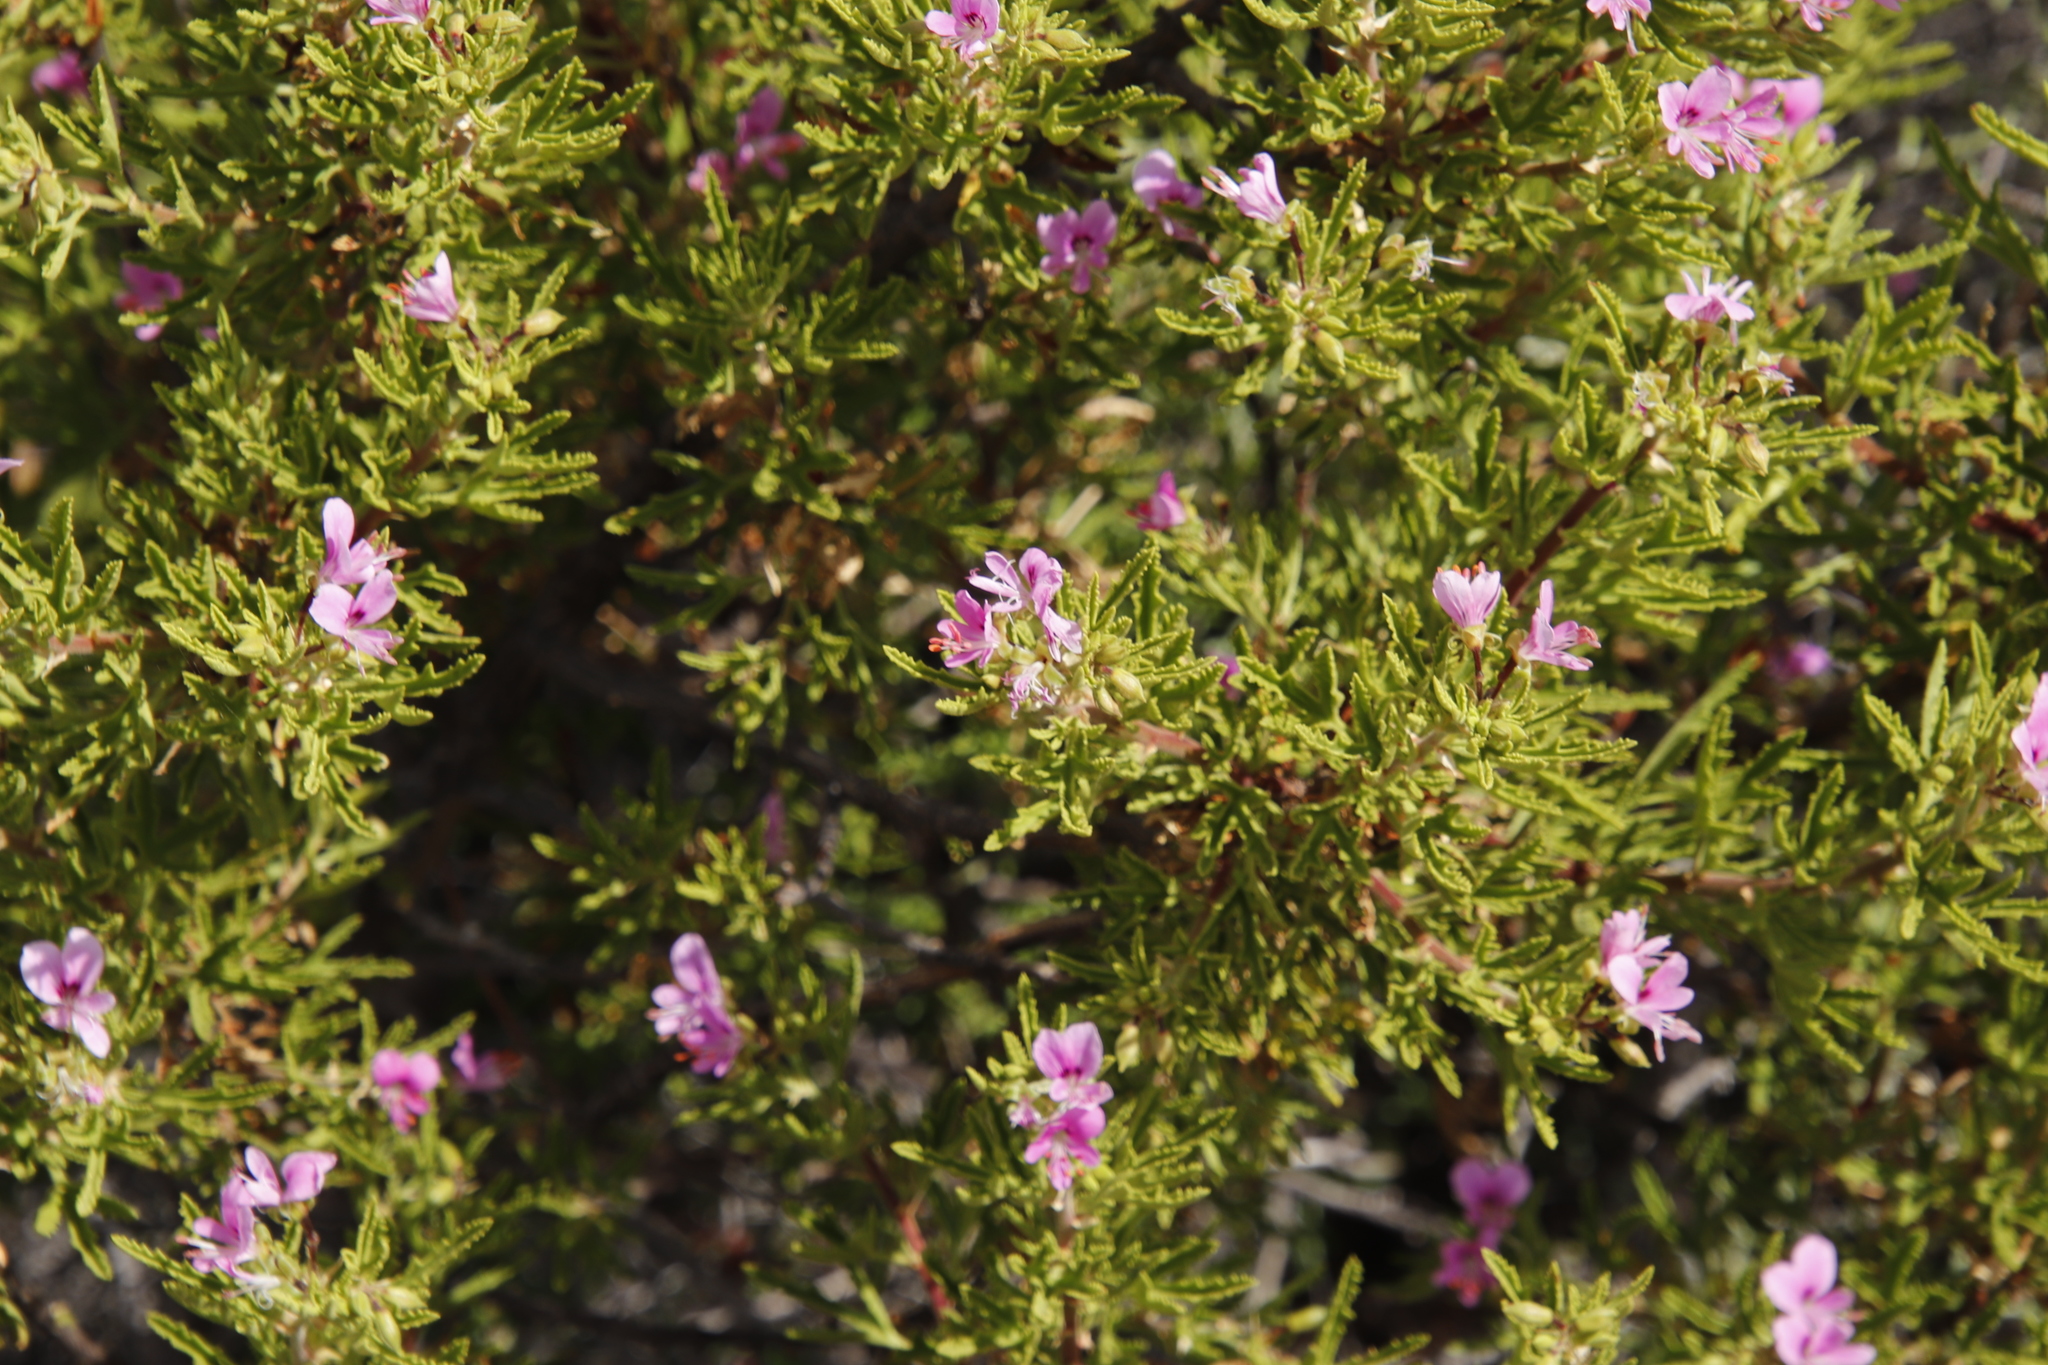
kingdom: Plantae
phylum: Tracheophyta
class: Magnoliopsida
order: Geraniales
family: Geraniaceae
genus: Pelargonium
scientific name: Pelargonium scabrum
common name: Apricot geranium
